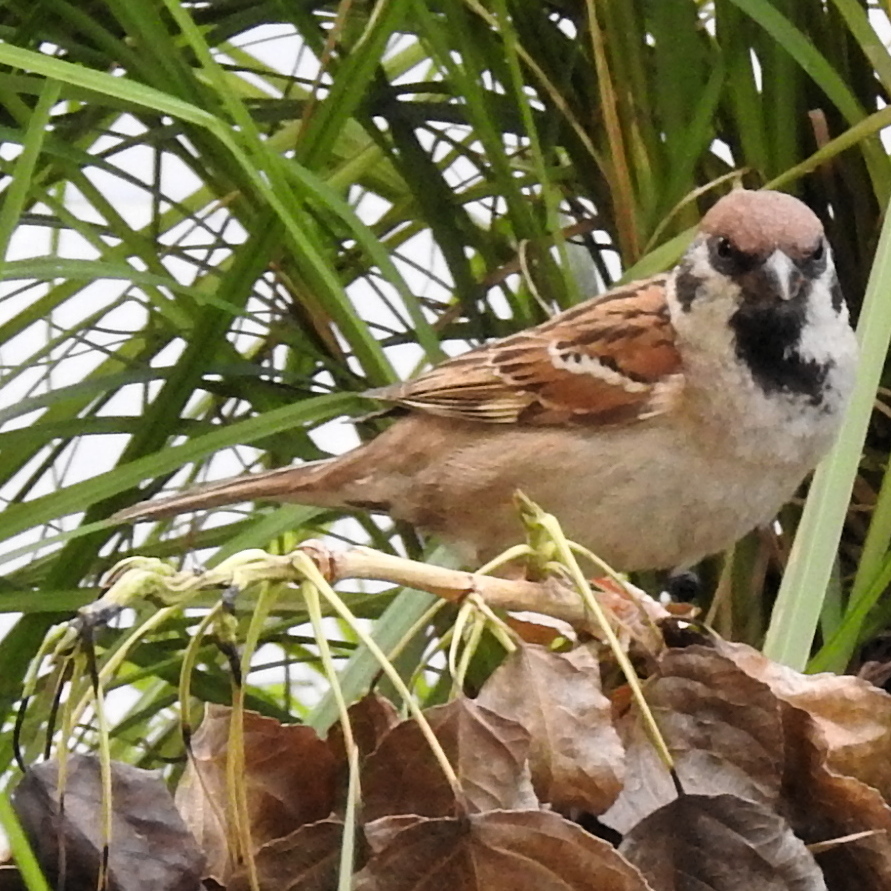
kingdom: Animalia
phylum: Chordata
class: Aves
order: Passeriformes
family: Passeridae
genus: Passer
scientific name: Passer montanus
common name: Eurasian tree sparrow
